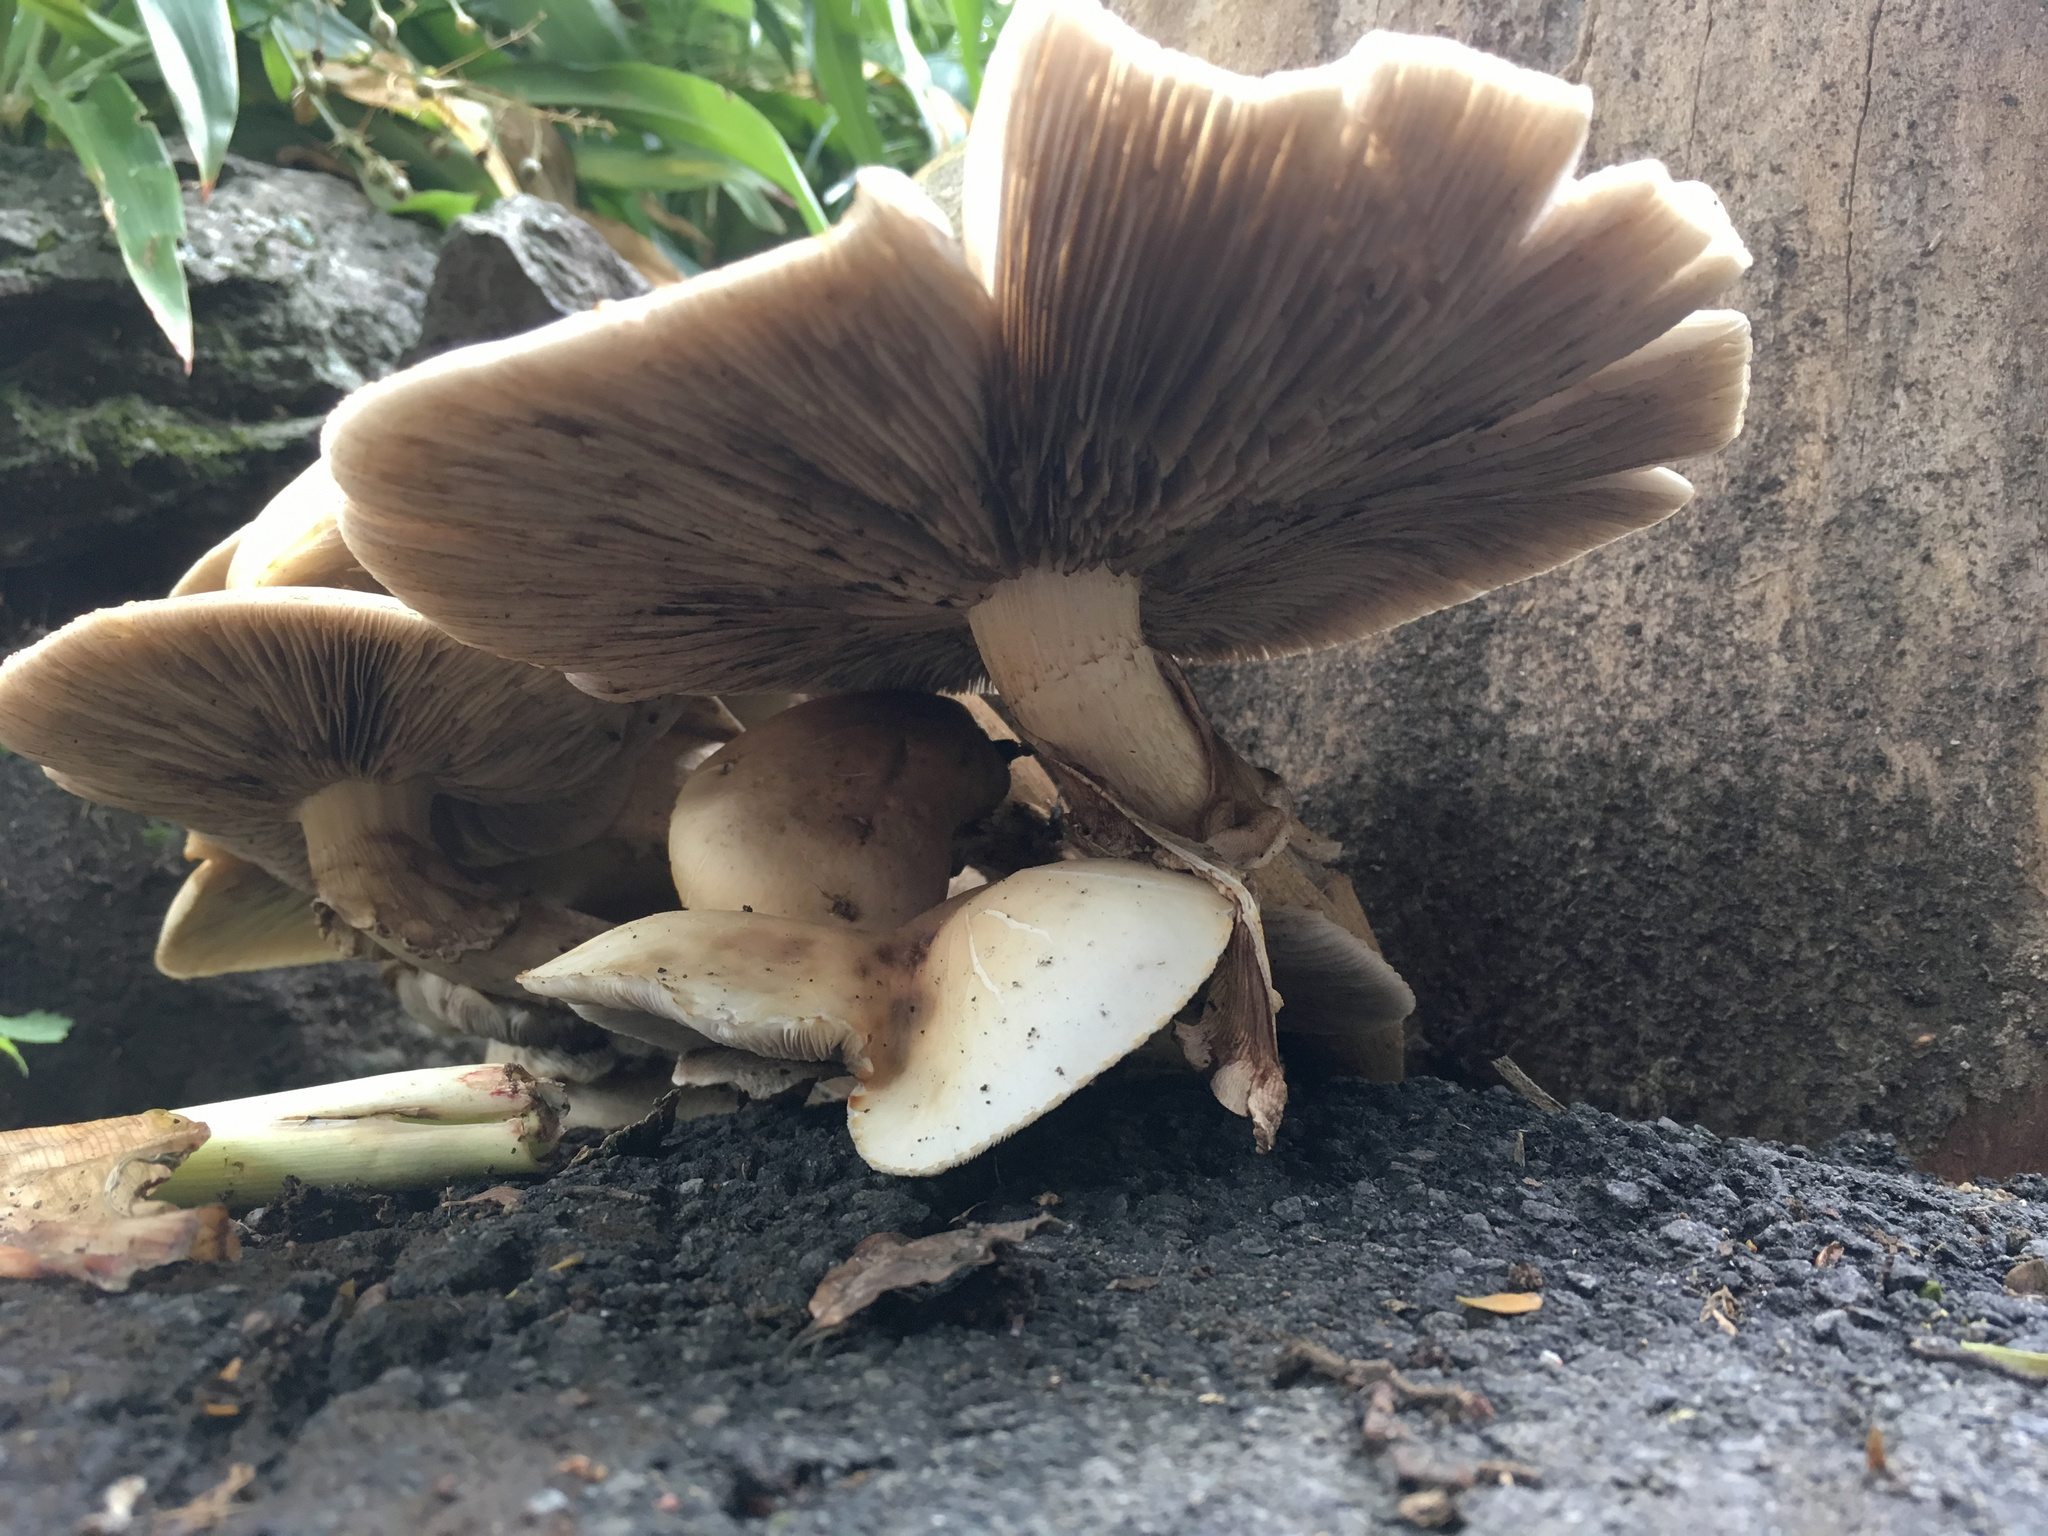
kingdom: Fungi
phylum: Basidiomycota
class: Agaricomycetes
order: Agaricales
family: Tubariaceae
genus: Cyclocybe
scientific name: Cyclocybe parasitica
